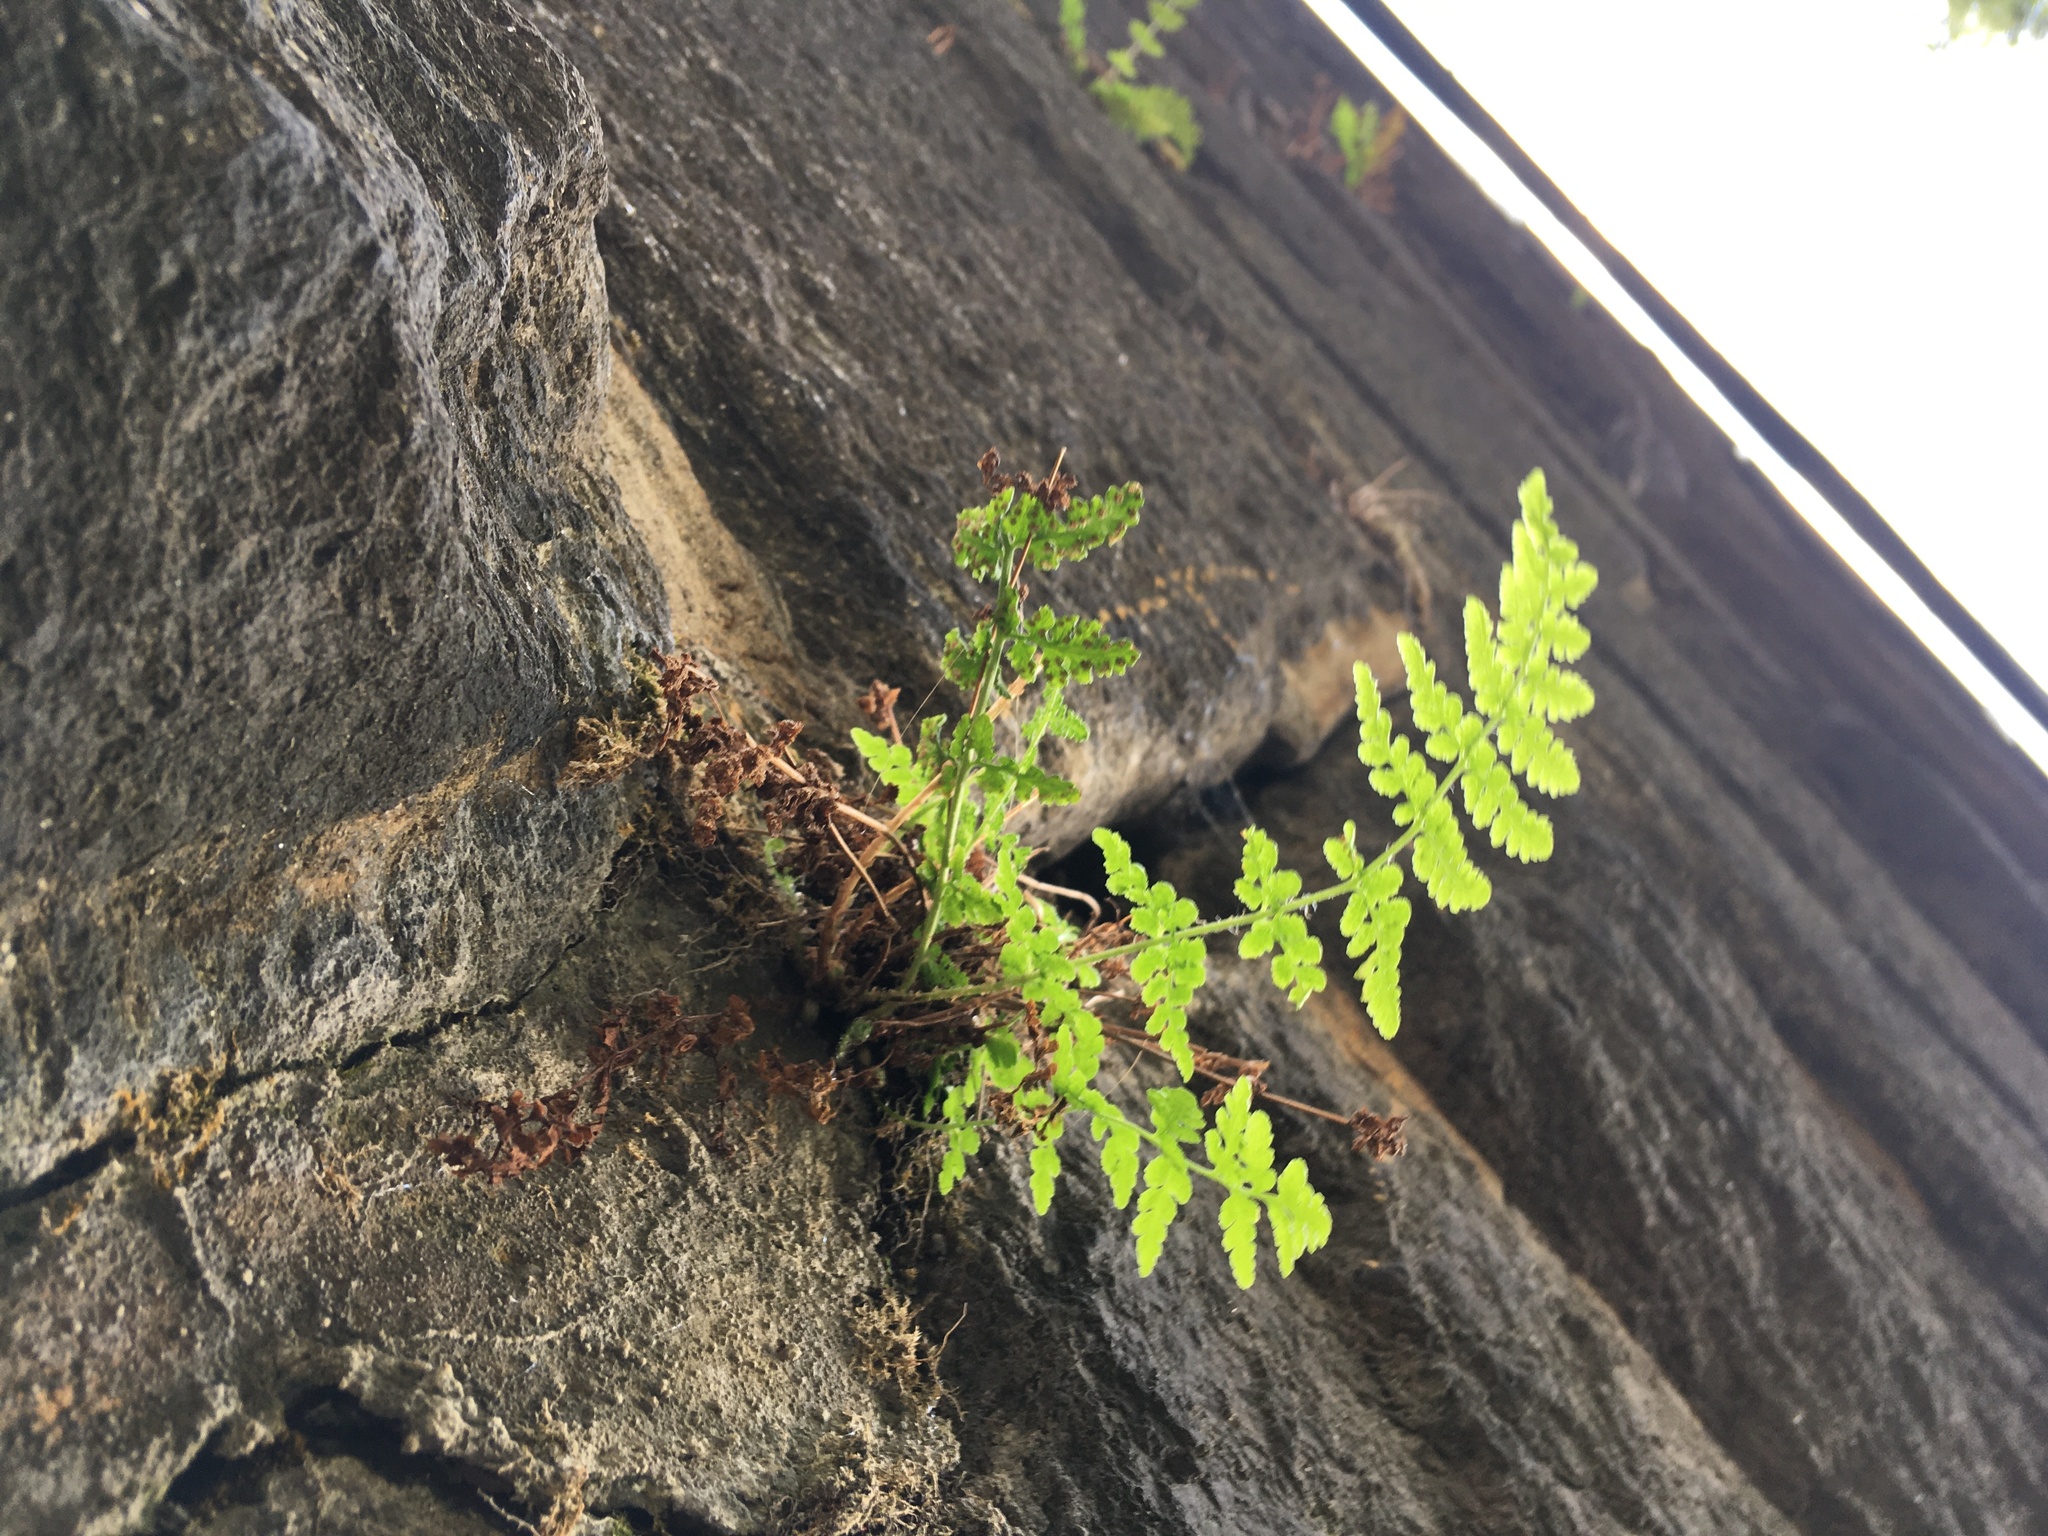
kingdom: Plantae
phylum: Tracheophyta
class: Polypodiopsida
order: Polypodiales
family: Woodsiaceae
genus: Physematium
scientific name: Physematium obtusum
